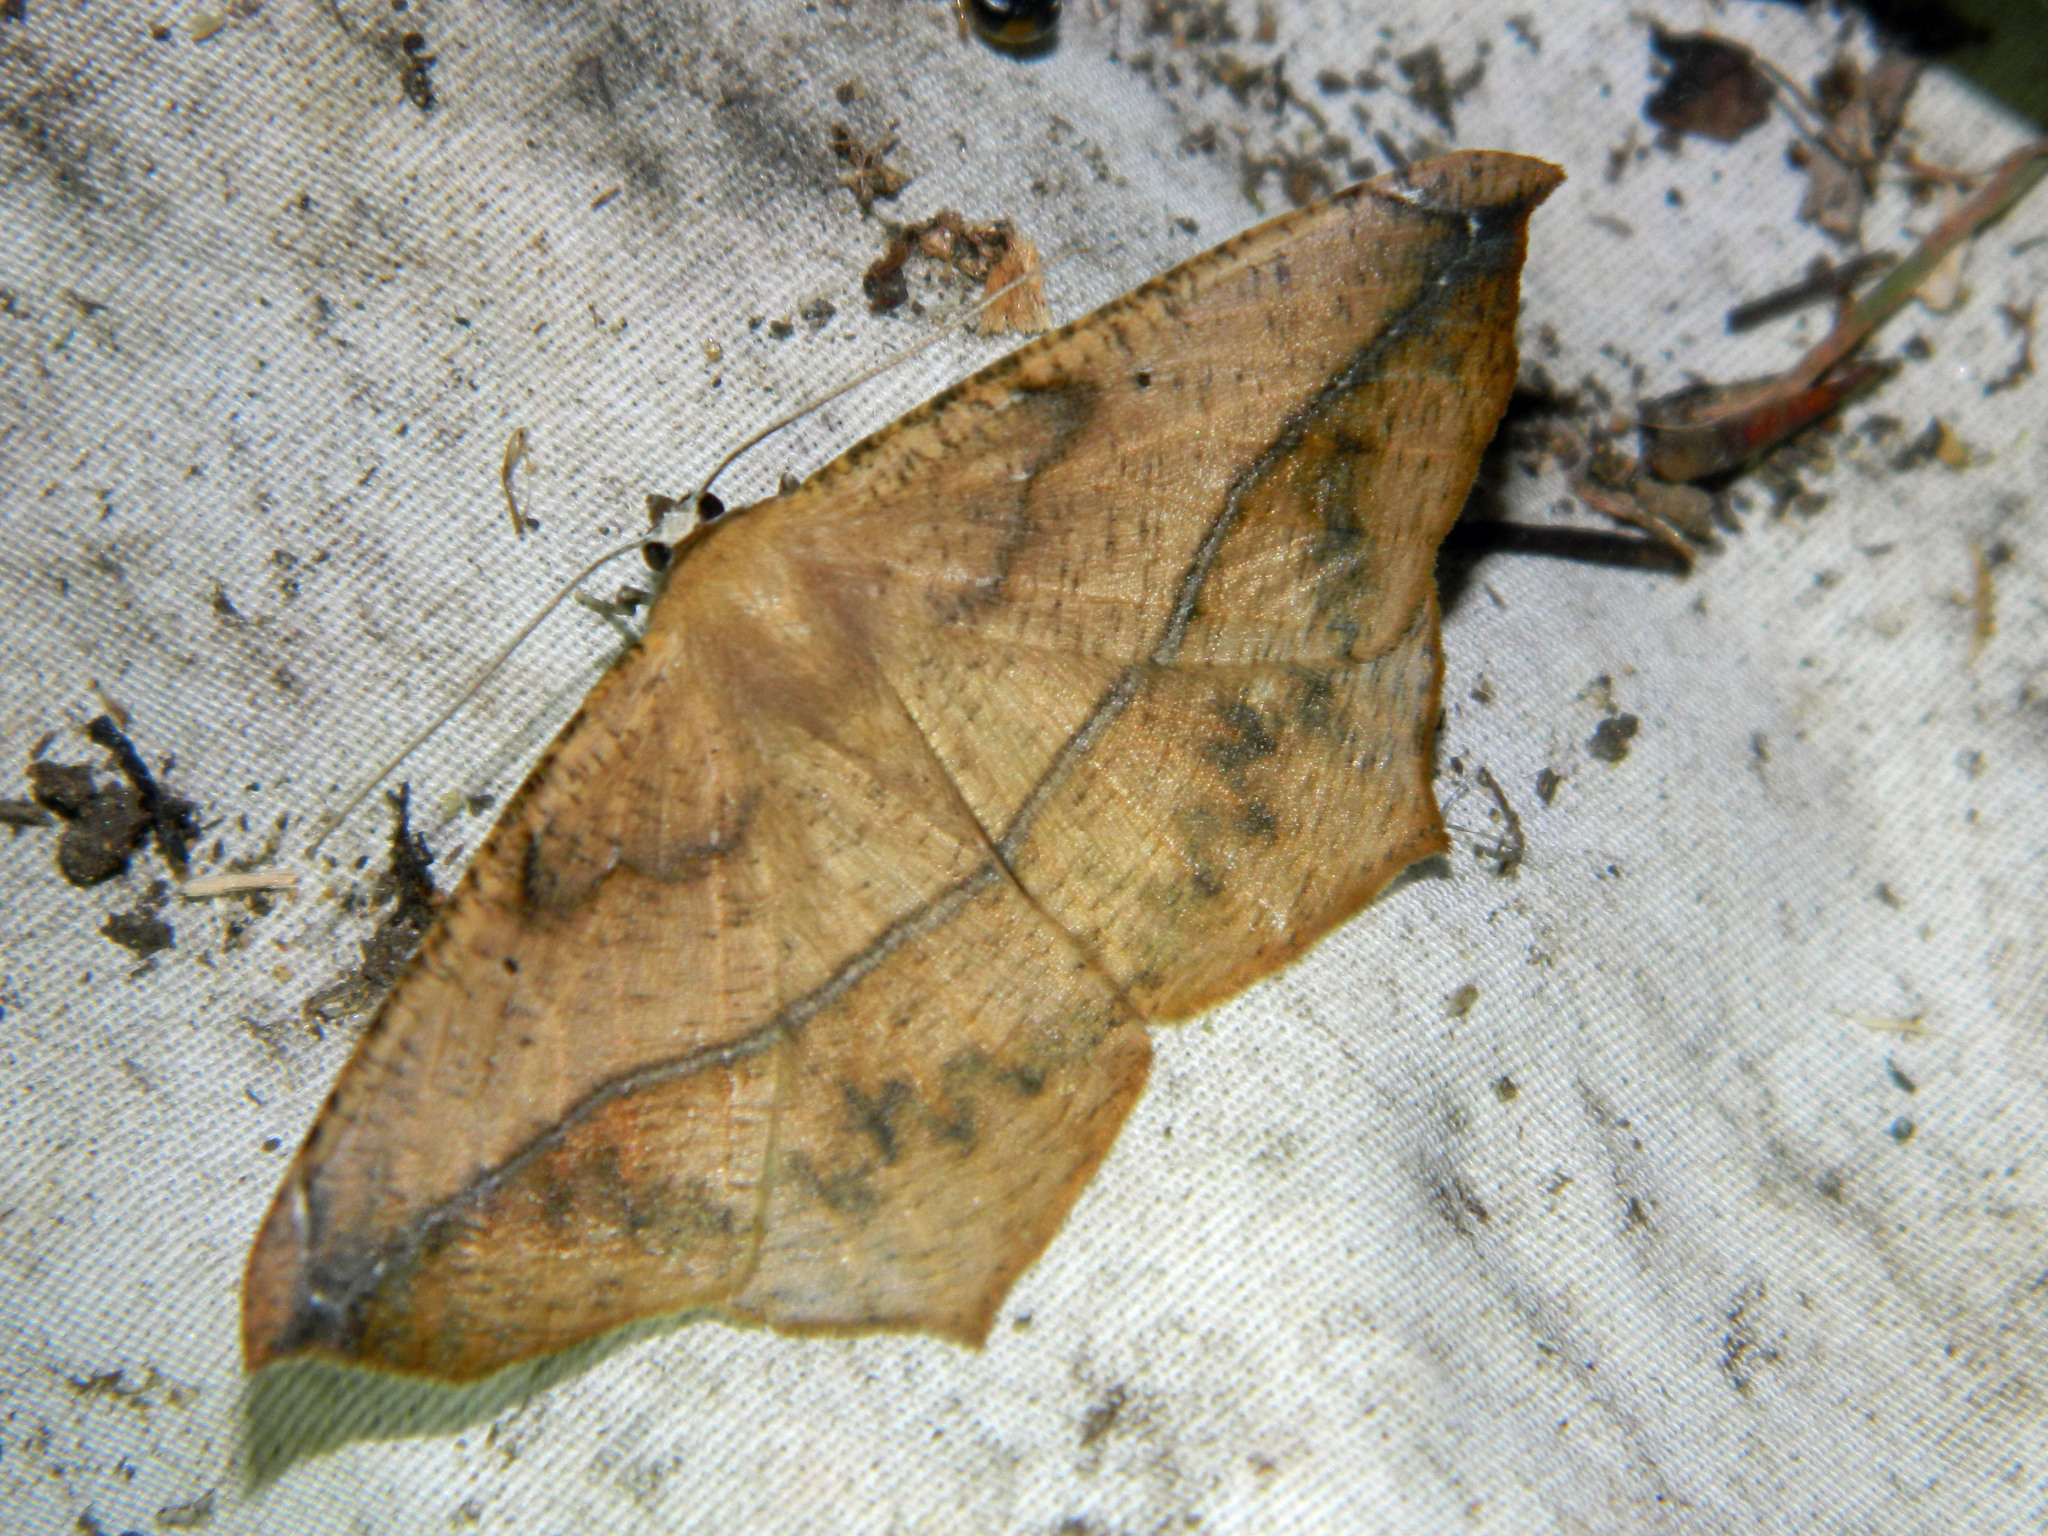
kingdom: Animalia
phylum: Arthropoda
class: Insecta
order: Lepidoptera
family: Geometridae
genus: Prochoerodes
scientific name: Prochoerodes lineola
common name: Large maple spanworm
